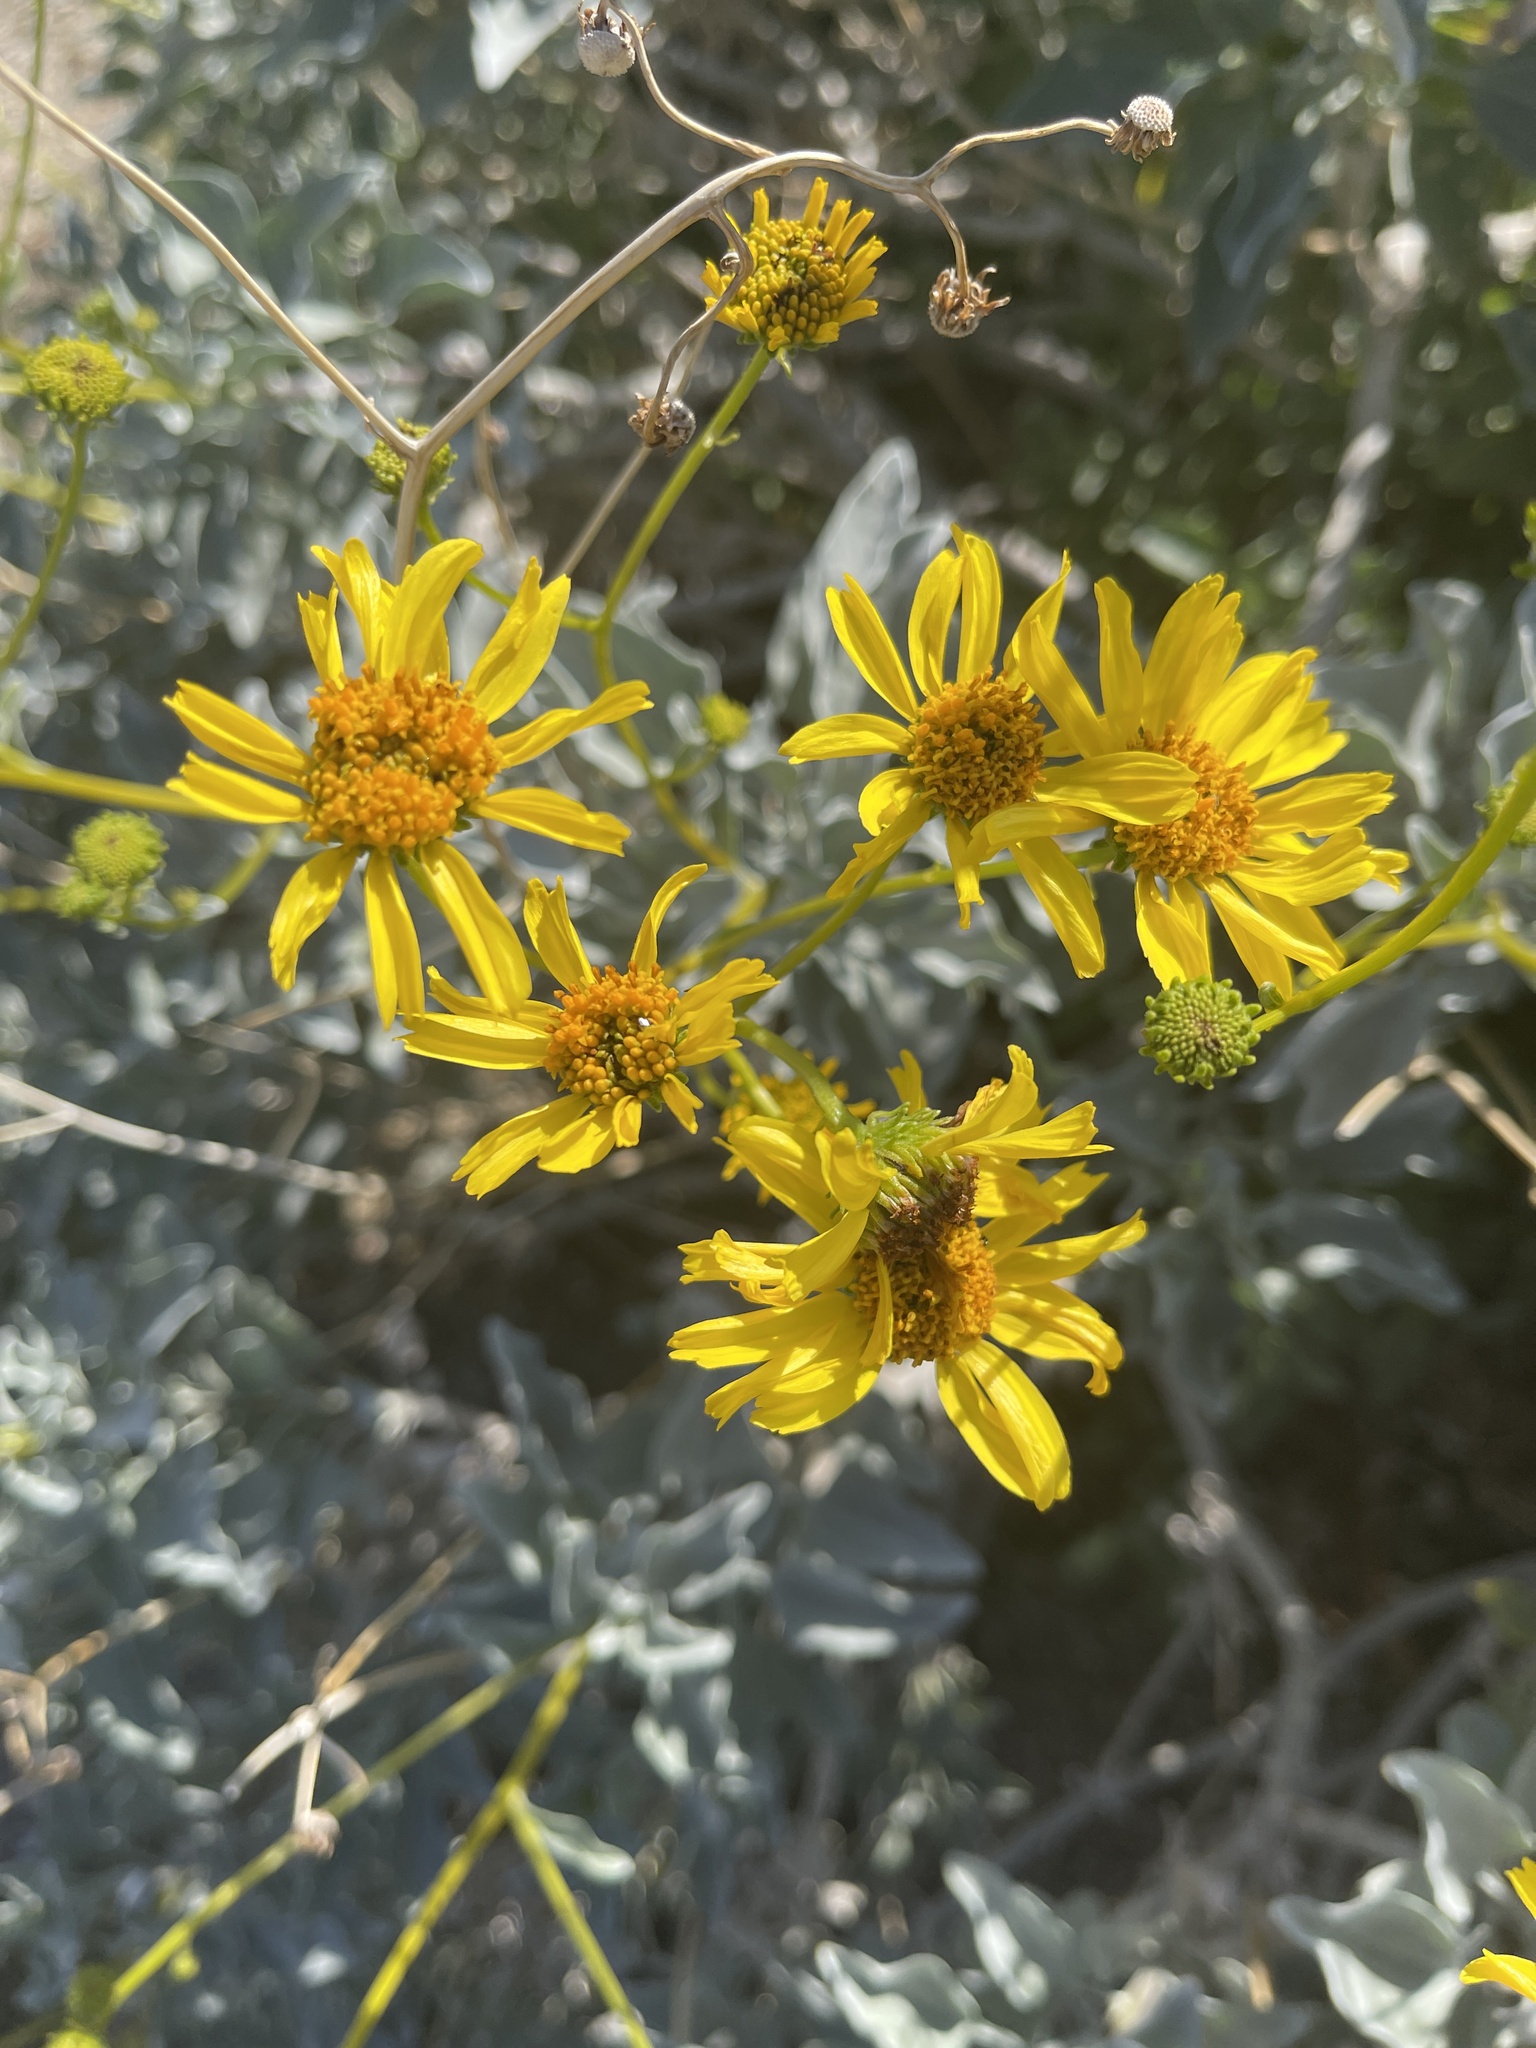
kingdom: Plantae
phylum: Tracheophyta
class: Magnoliopsida
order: Asterales
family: Asteraceae
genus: Encelia
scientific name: Encelia farinosa
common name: Brittlebush
